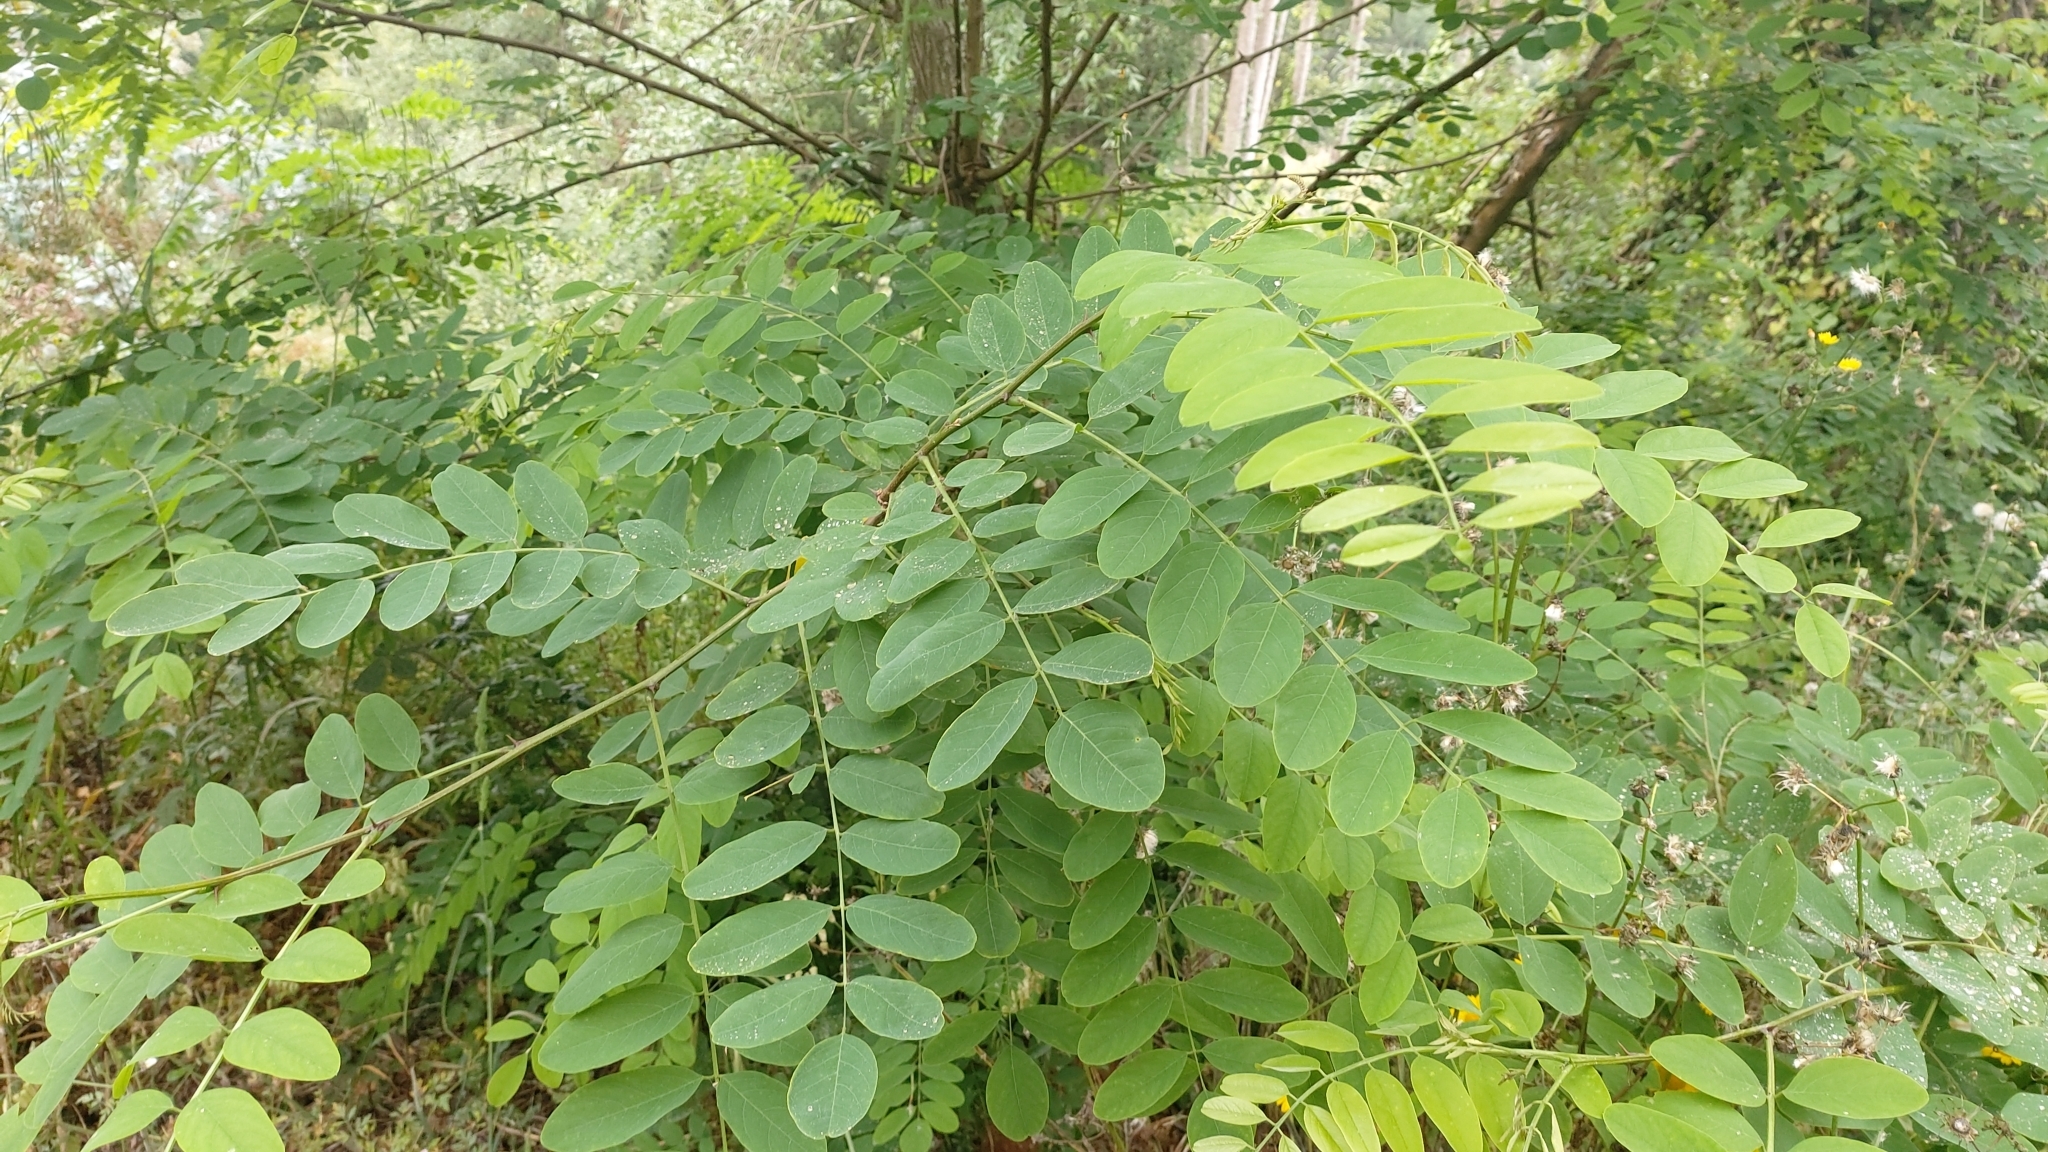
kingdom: Plantae
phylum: Tracheophyta
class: Magnoliopsida
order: Fabales
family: Fabaceae
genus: Robinia
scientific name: Robinia pseudoacacia
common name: Black locust
